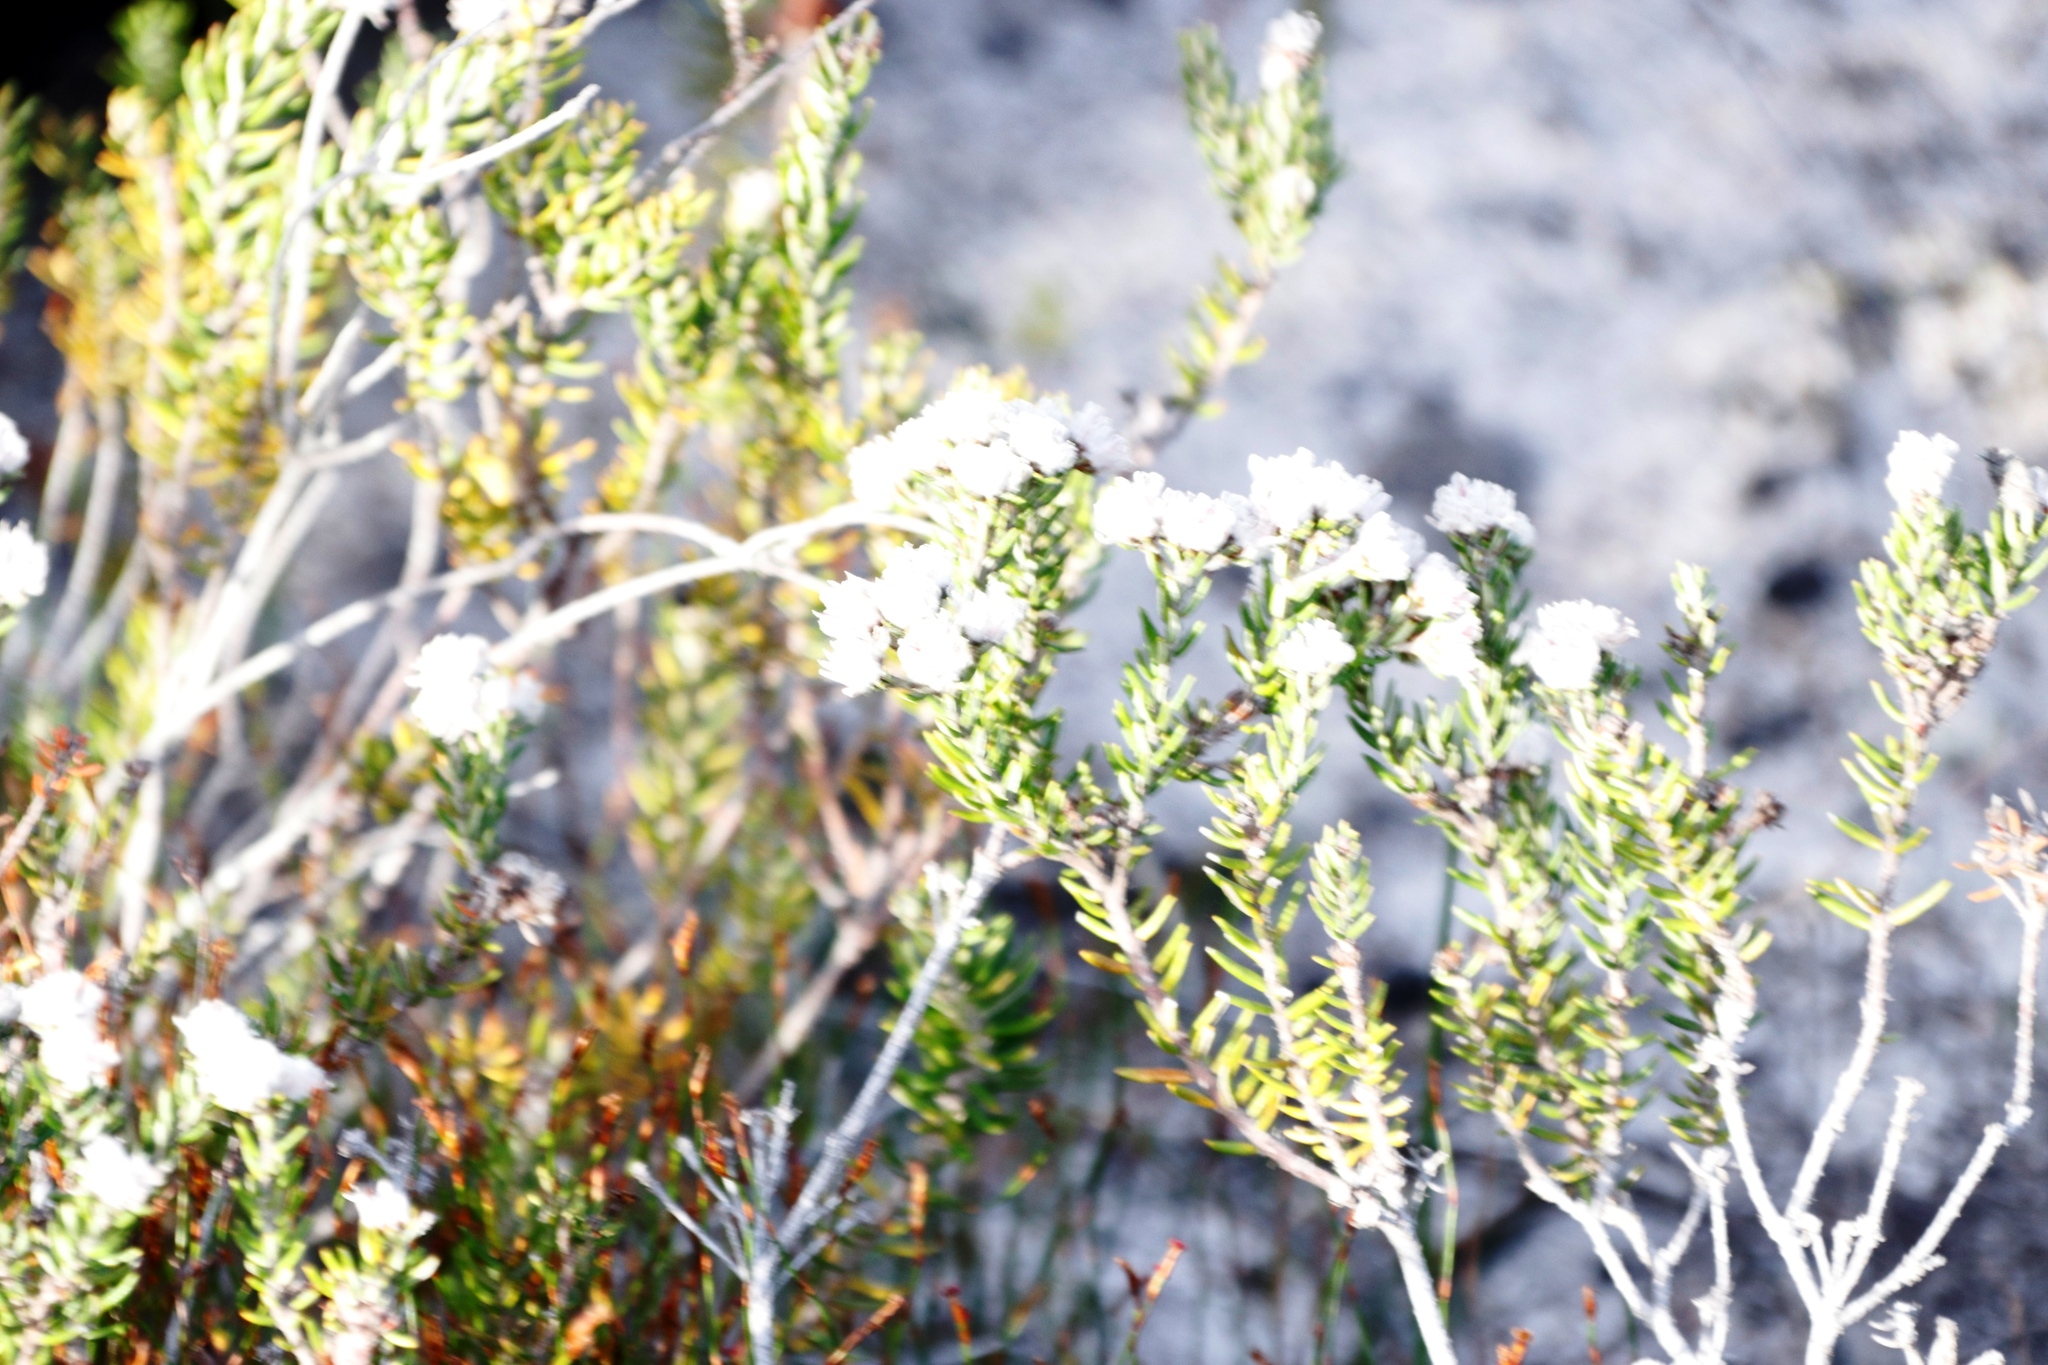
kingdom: Plantae
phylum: Tracheophyta
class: Magnoliopsida
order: Rosales
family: Rhamnaceae
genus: Trichocephalus
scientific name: Trichocephalus stipularis
